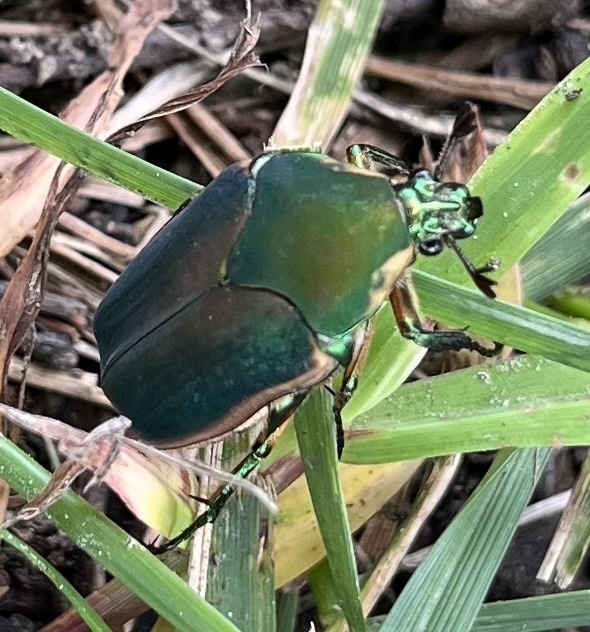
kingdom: Animalia
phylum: Arthropoda
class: Insecta
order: Coleoptera
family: Scarabaeidae
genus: Cotinis
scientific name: Cotinis nitida
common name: Common green june beetle
